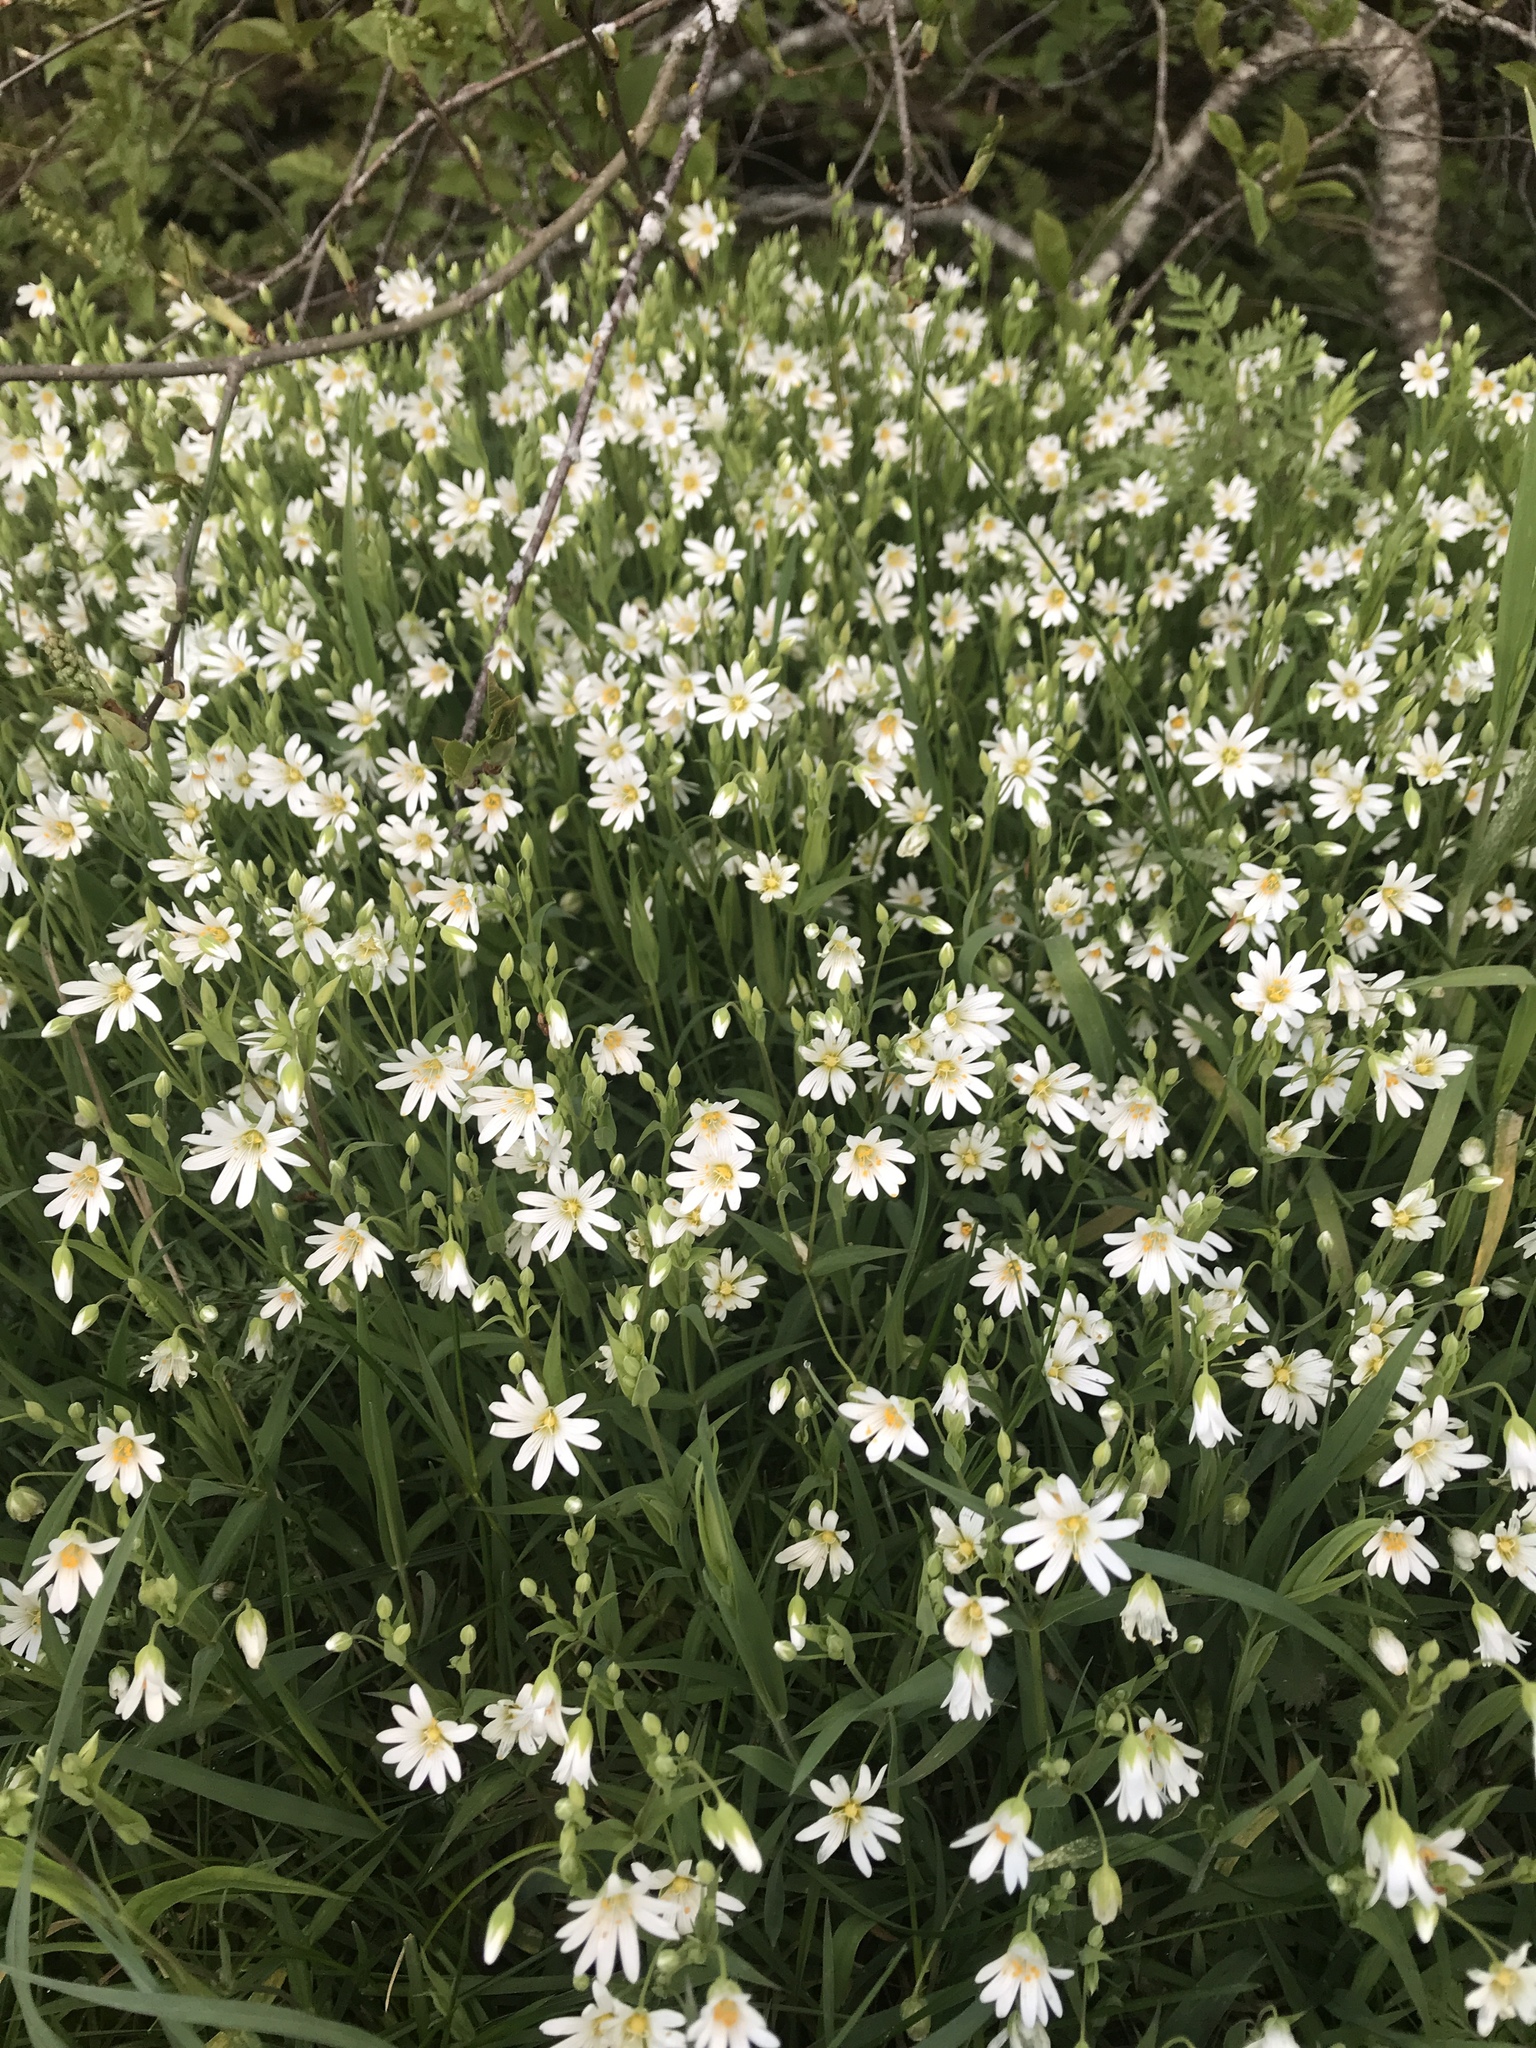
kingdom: Plantae
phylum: Tracheophyta
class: Magnoliopsida
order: Caryophyllales
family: Caryophyllaceae
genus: Rabelera
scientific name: Rabelera holostea
